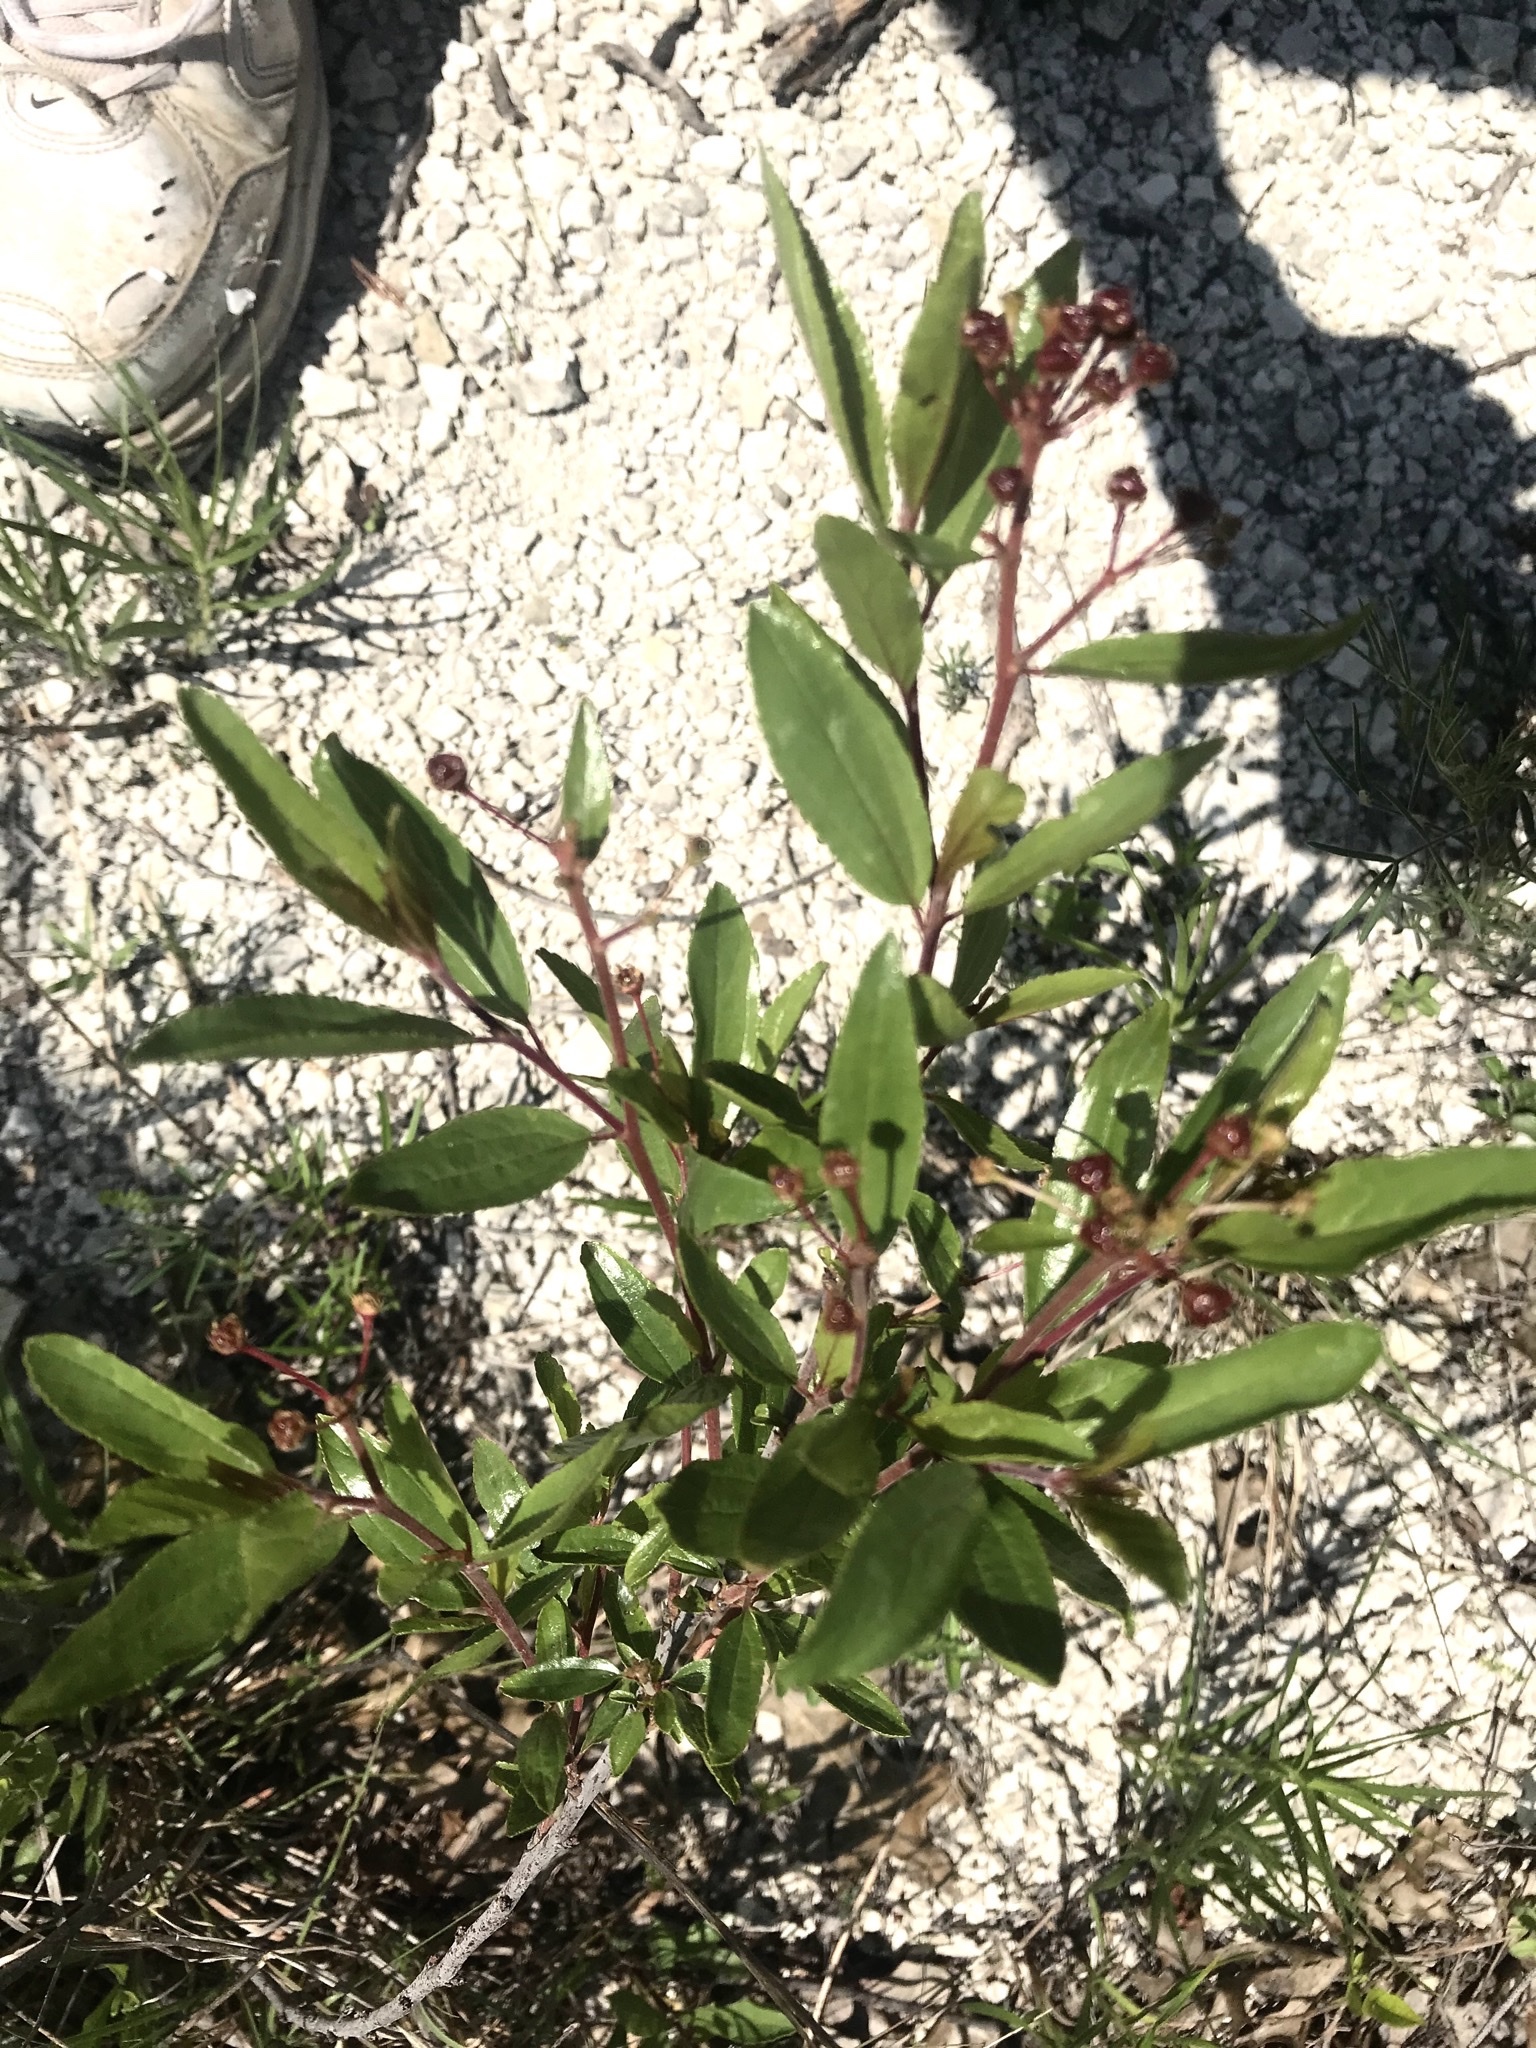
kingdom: Plantae
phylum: Tracheophyta
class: Magnoliopsida
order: Rosales
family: Rhamnaceae
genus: Ceanothus
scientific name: Ceanothus herbaceus
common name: Inland ceanothus
